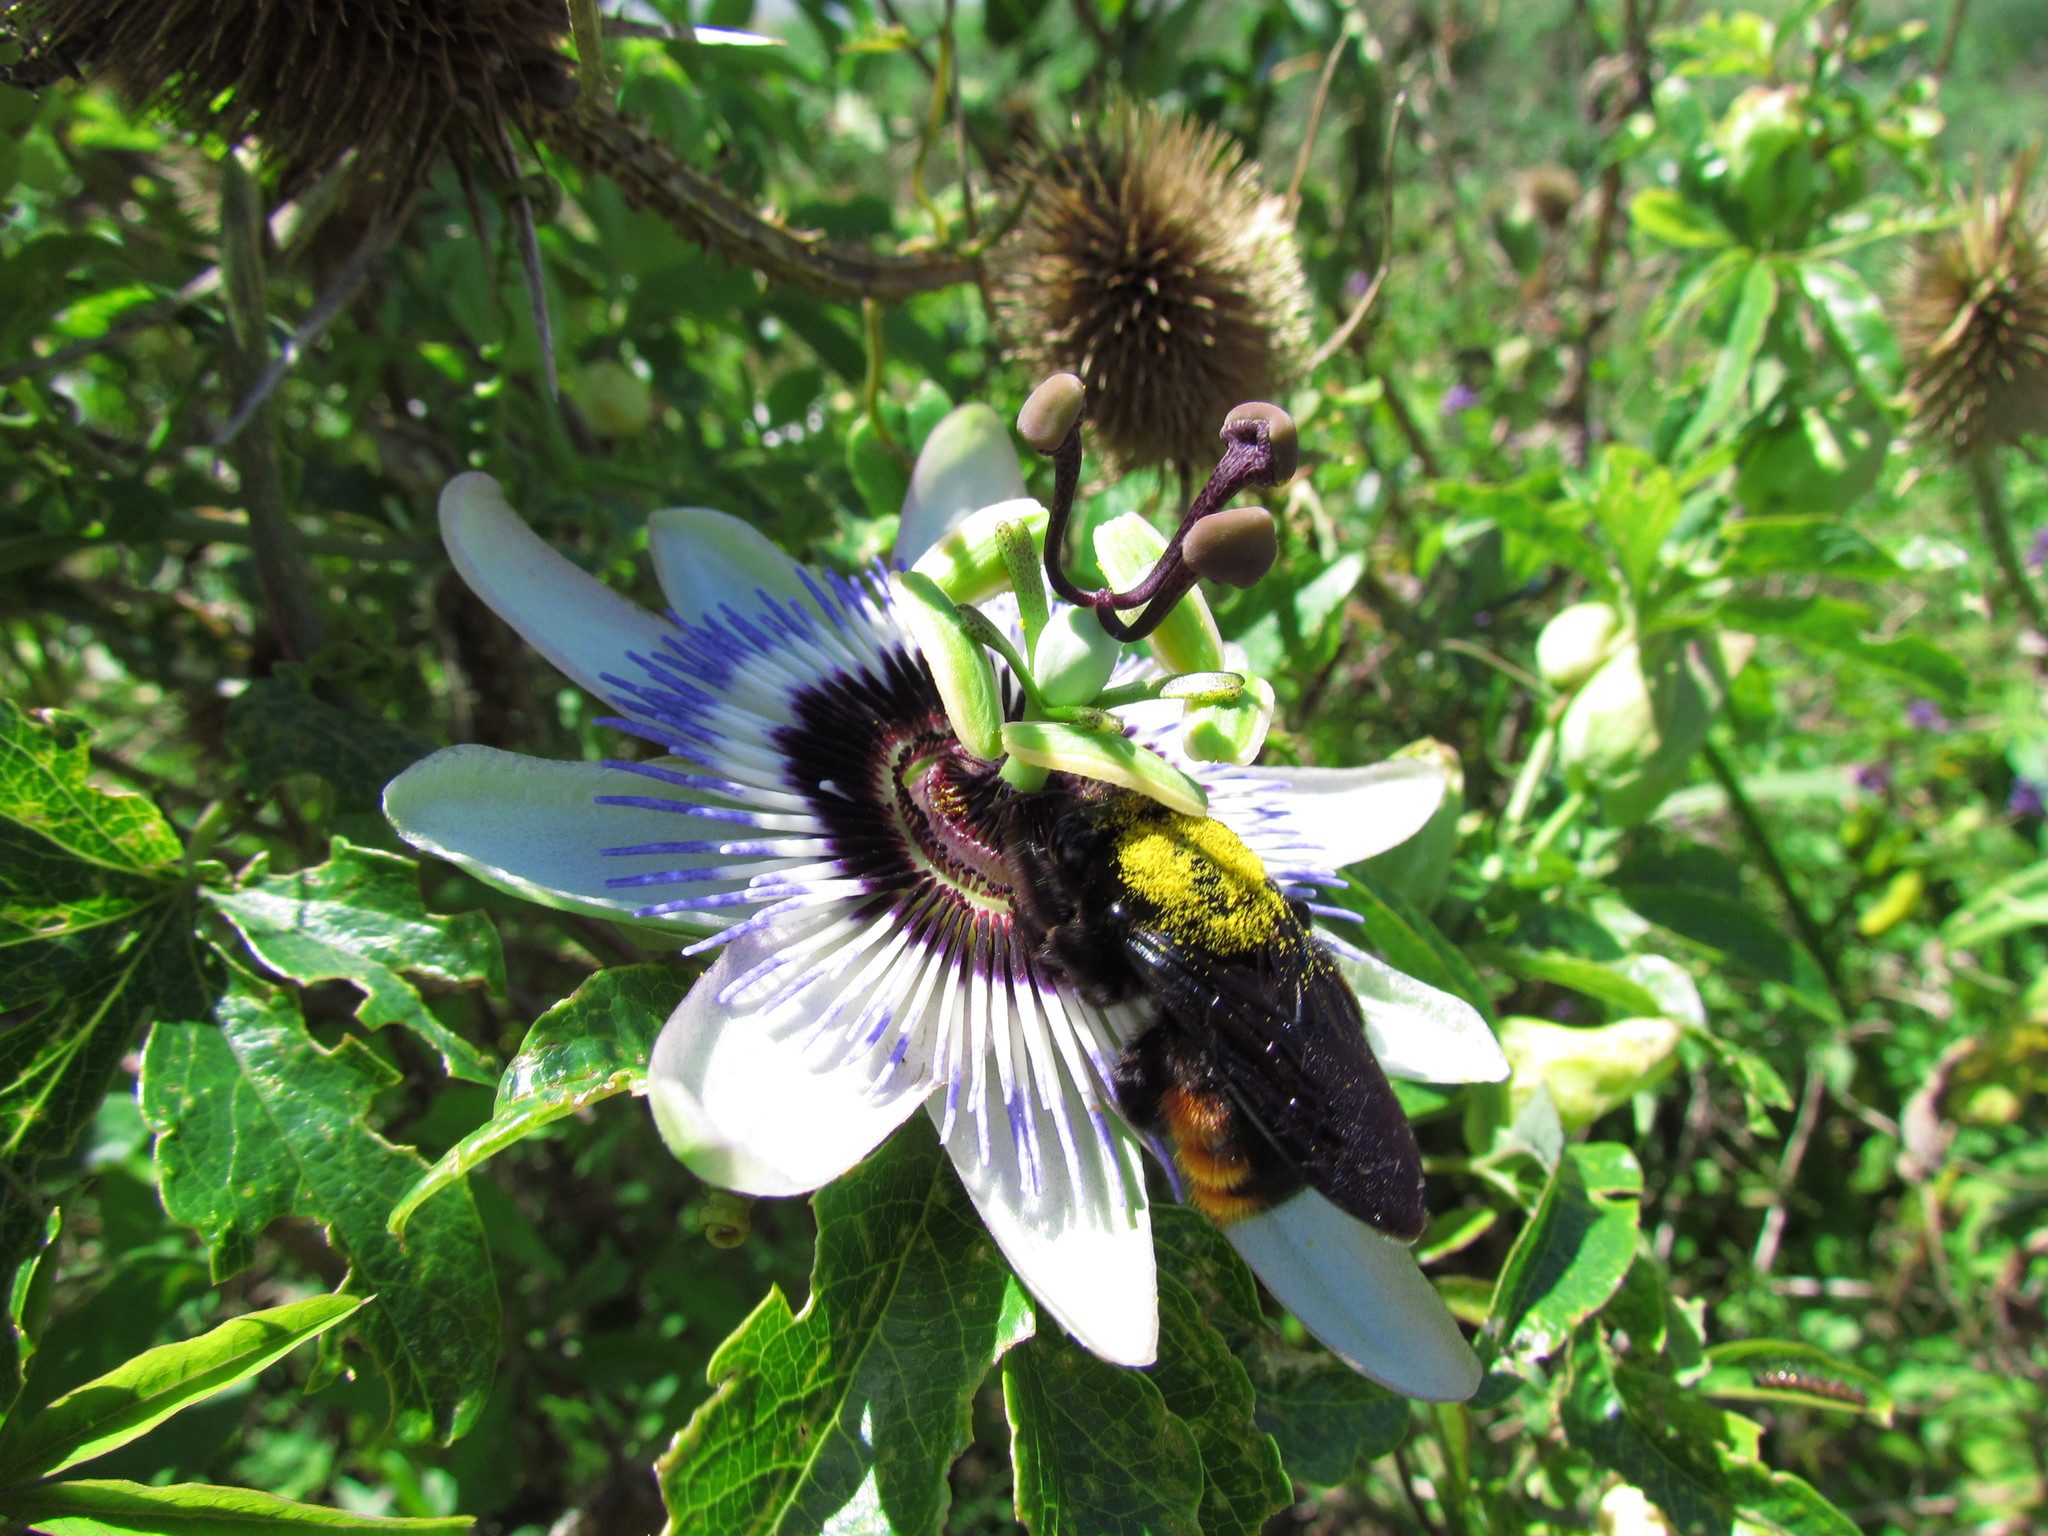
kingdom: Plantae
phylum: Tracheophyta
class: Magnoliopsida
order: Malpighiales
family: Passifloraceae
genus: Passiflora
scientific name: Passiflora caerulea
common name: Blue passionflower
